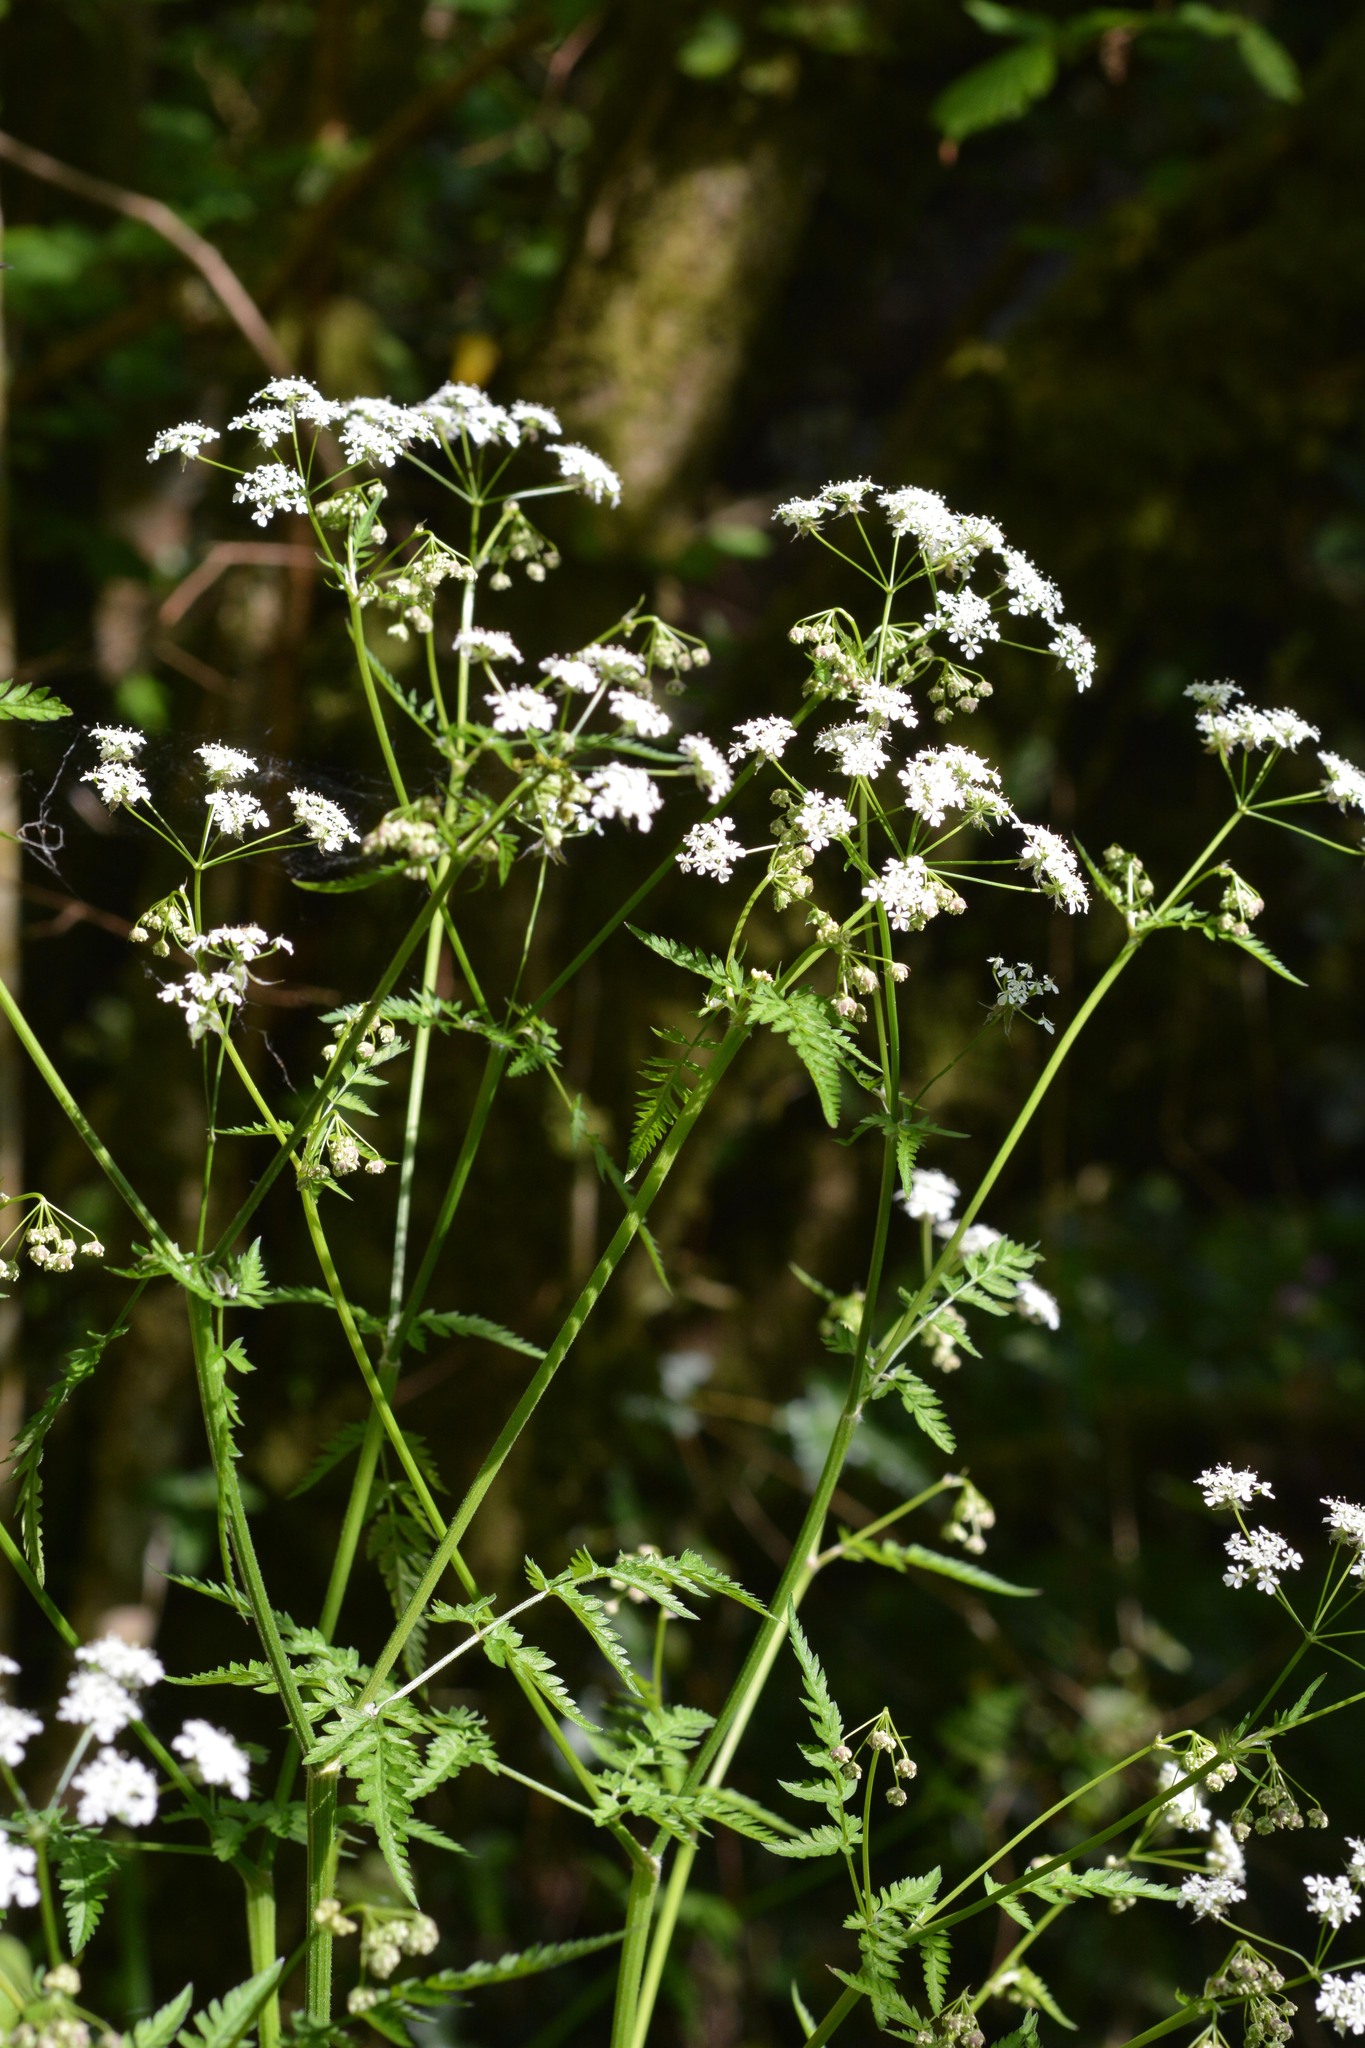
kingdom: Plantae
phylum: Tracheophyta
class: Magnoliopsida
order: Apiales
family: Apiaceae
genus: Anthriscus
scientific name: Anthriscus sylvestris
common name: Cow parsley
